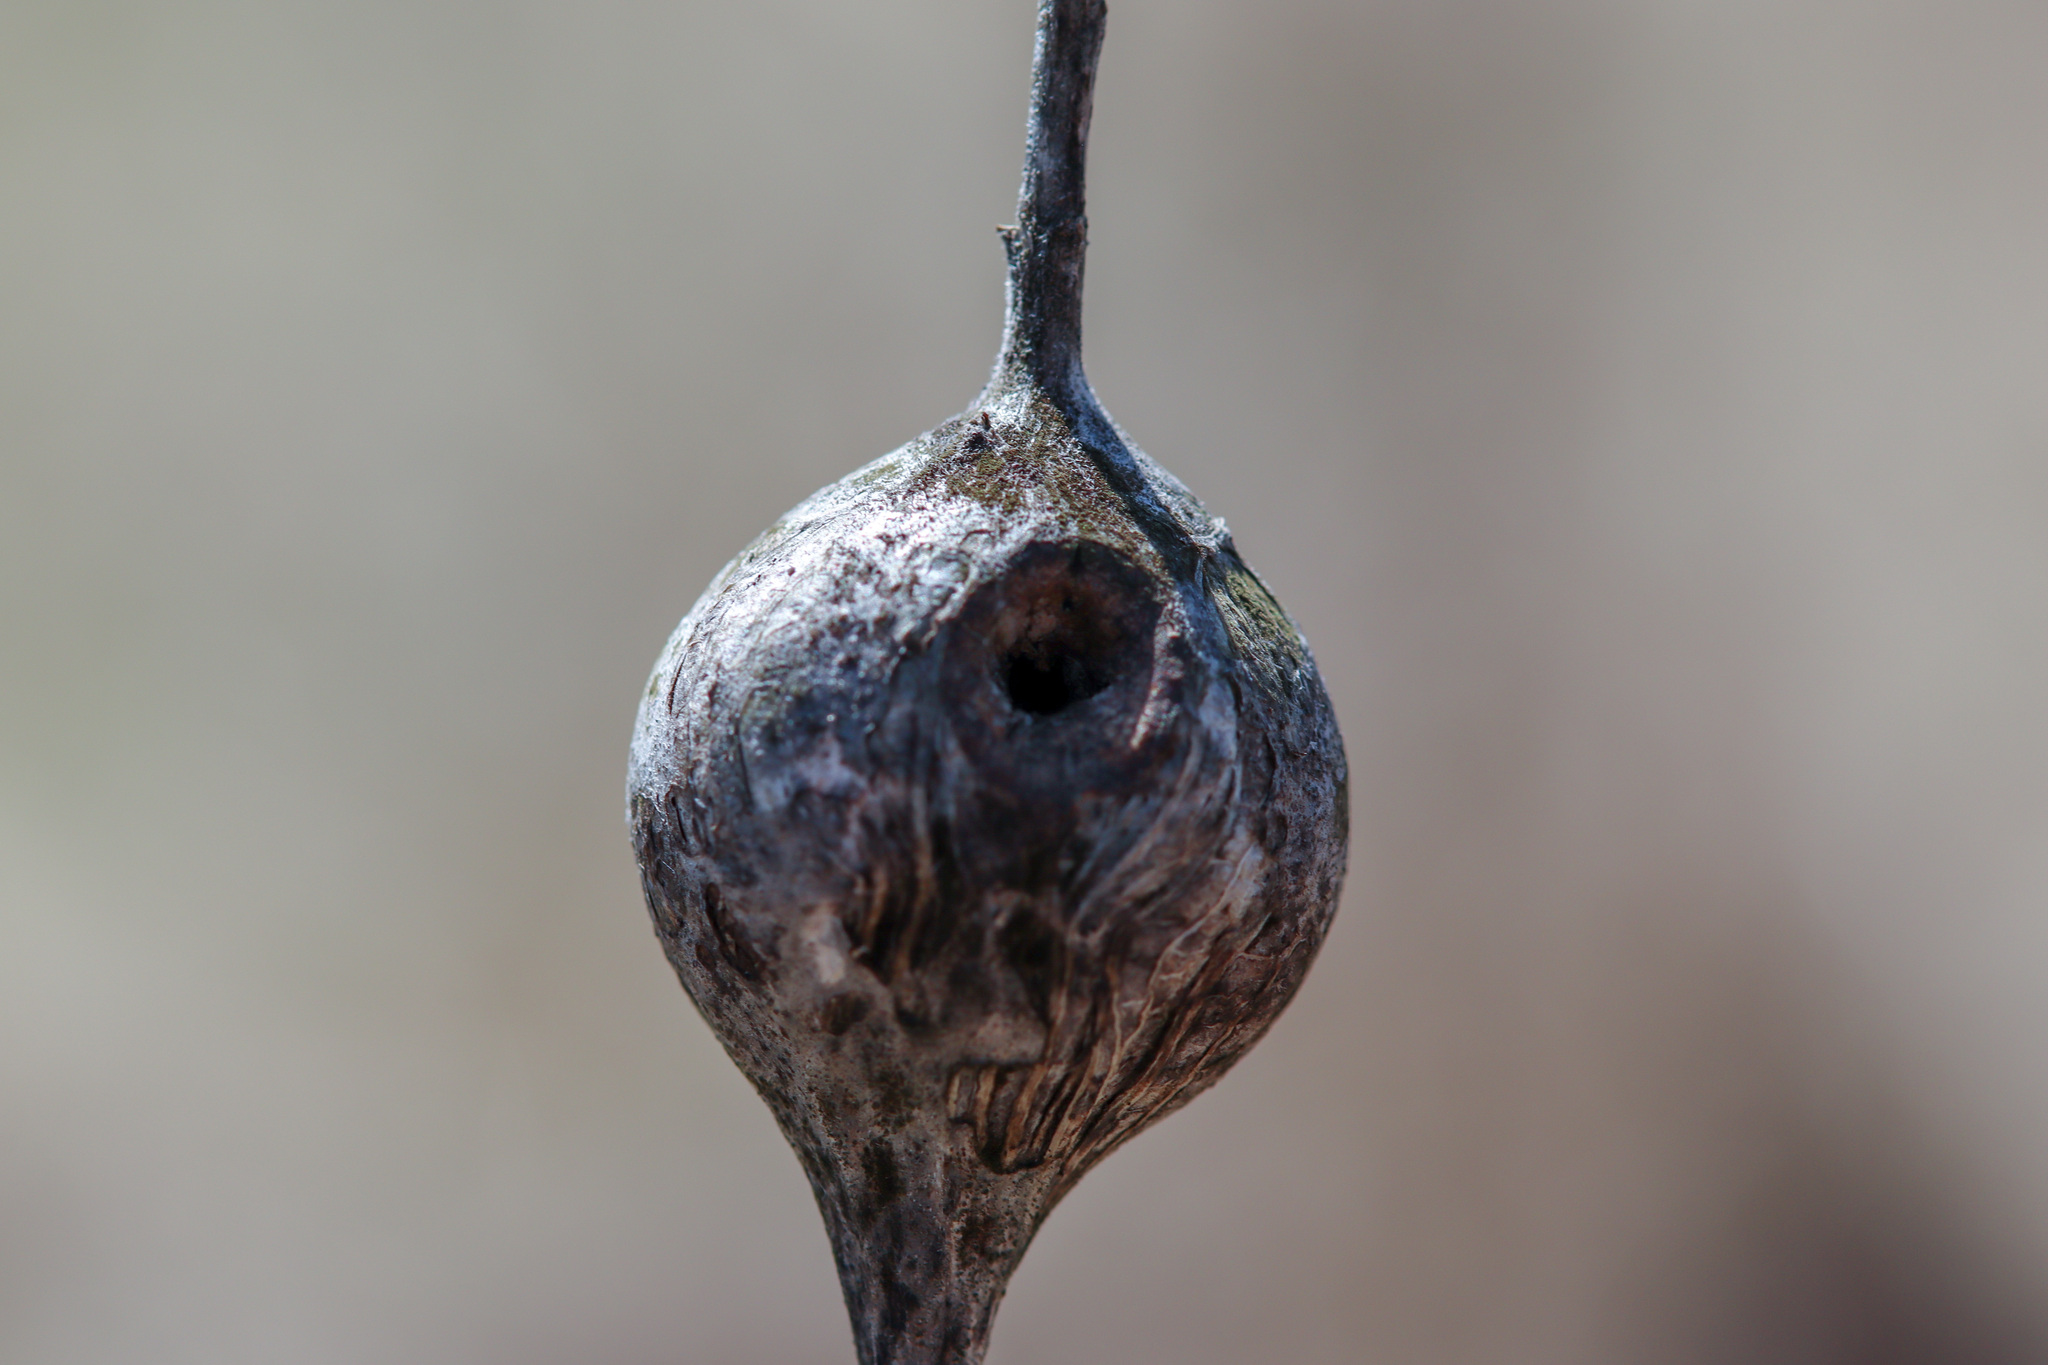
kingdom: Animalia
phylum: Arthropoda
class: Insecta
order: Diptera
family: Tephritidae
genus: Eurosta
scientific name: Eurosta solidaginis
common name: Goldenrod gall fly
